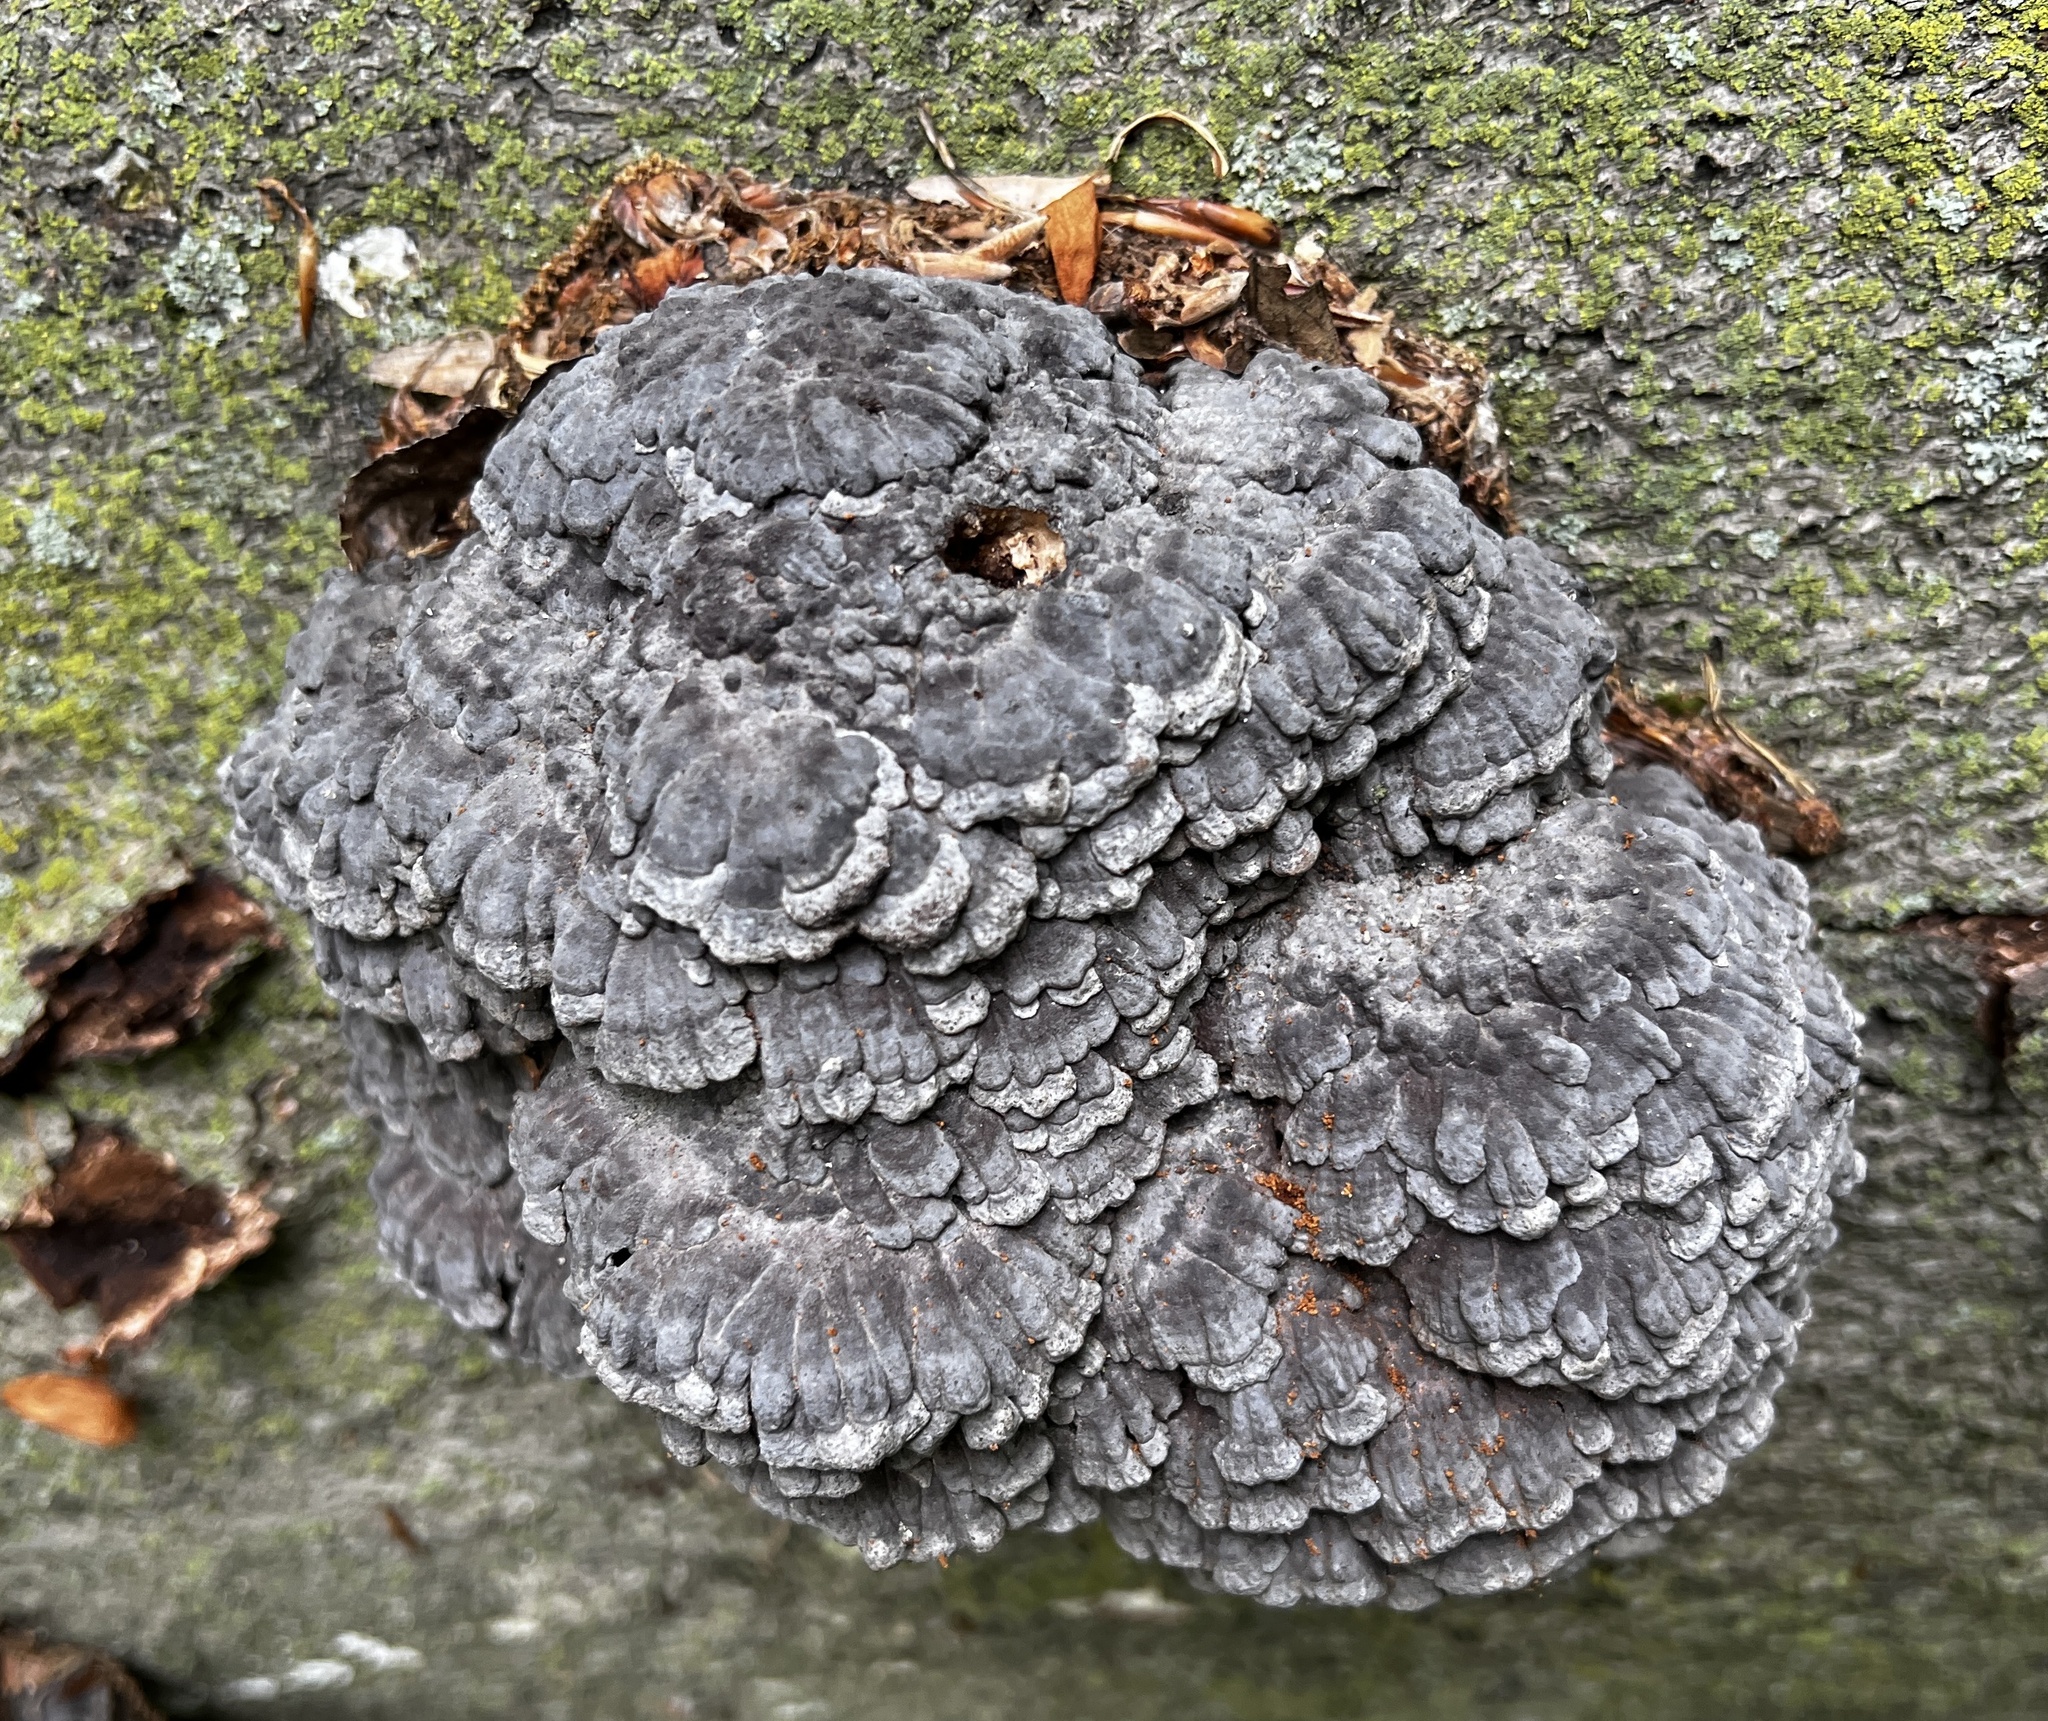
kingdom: Fungi
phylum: Basidiomycota
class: Agaricomycetes
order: Polyporales
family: Polyporaceae
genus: Globifomes
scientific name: Globifomes graveolens
